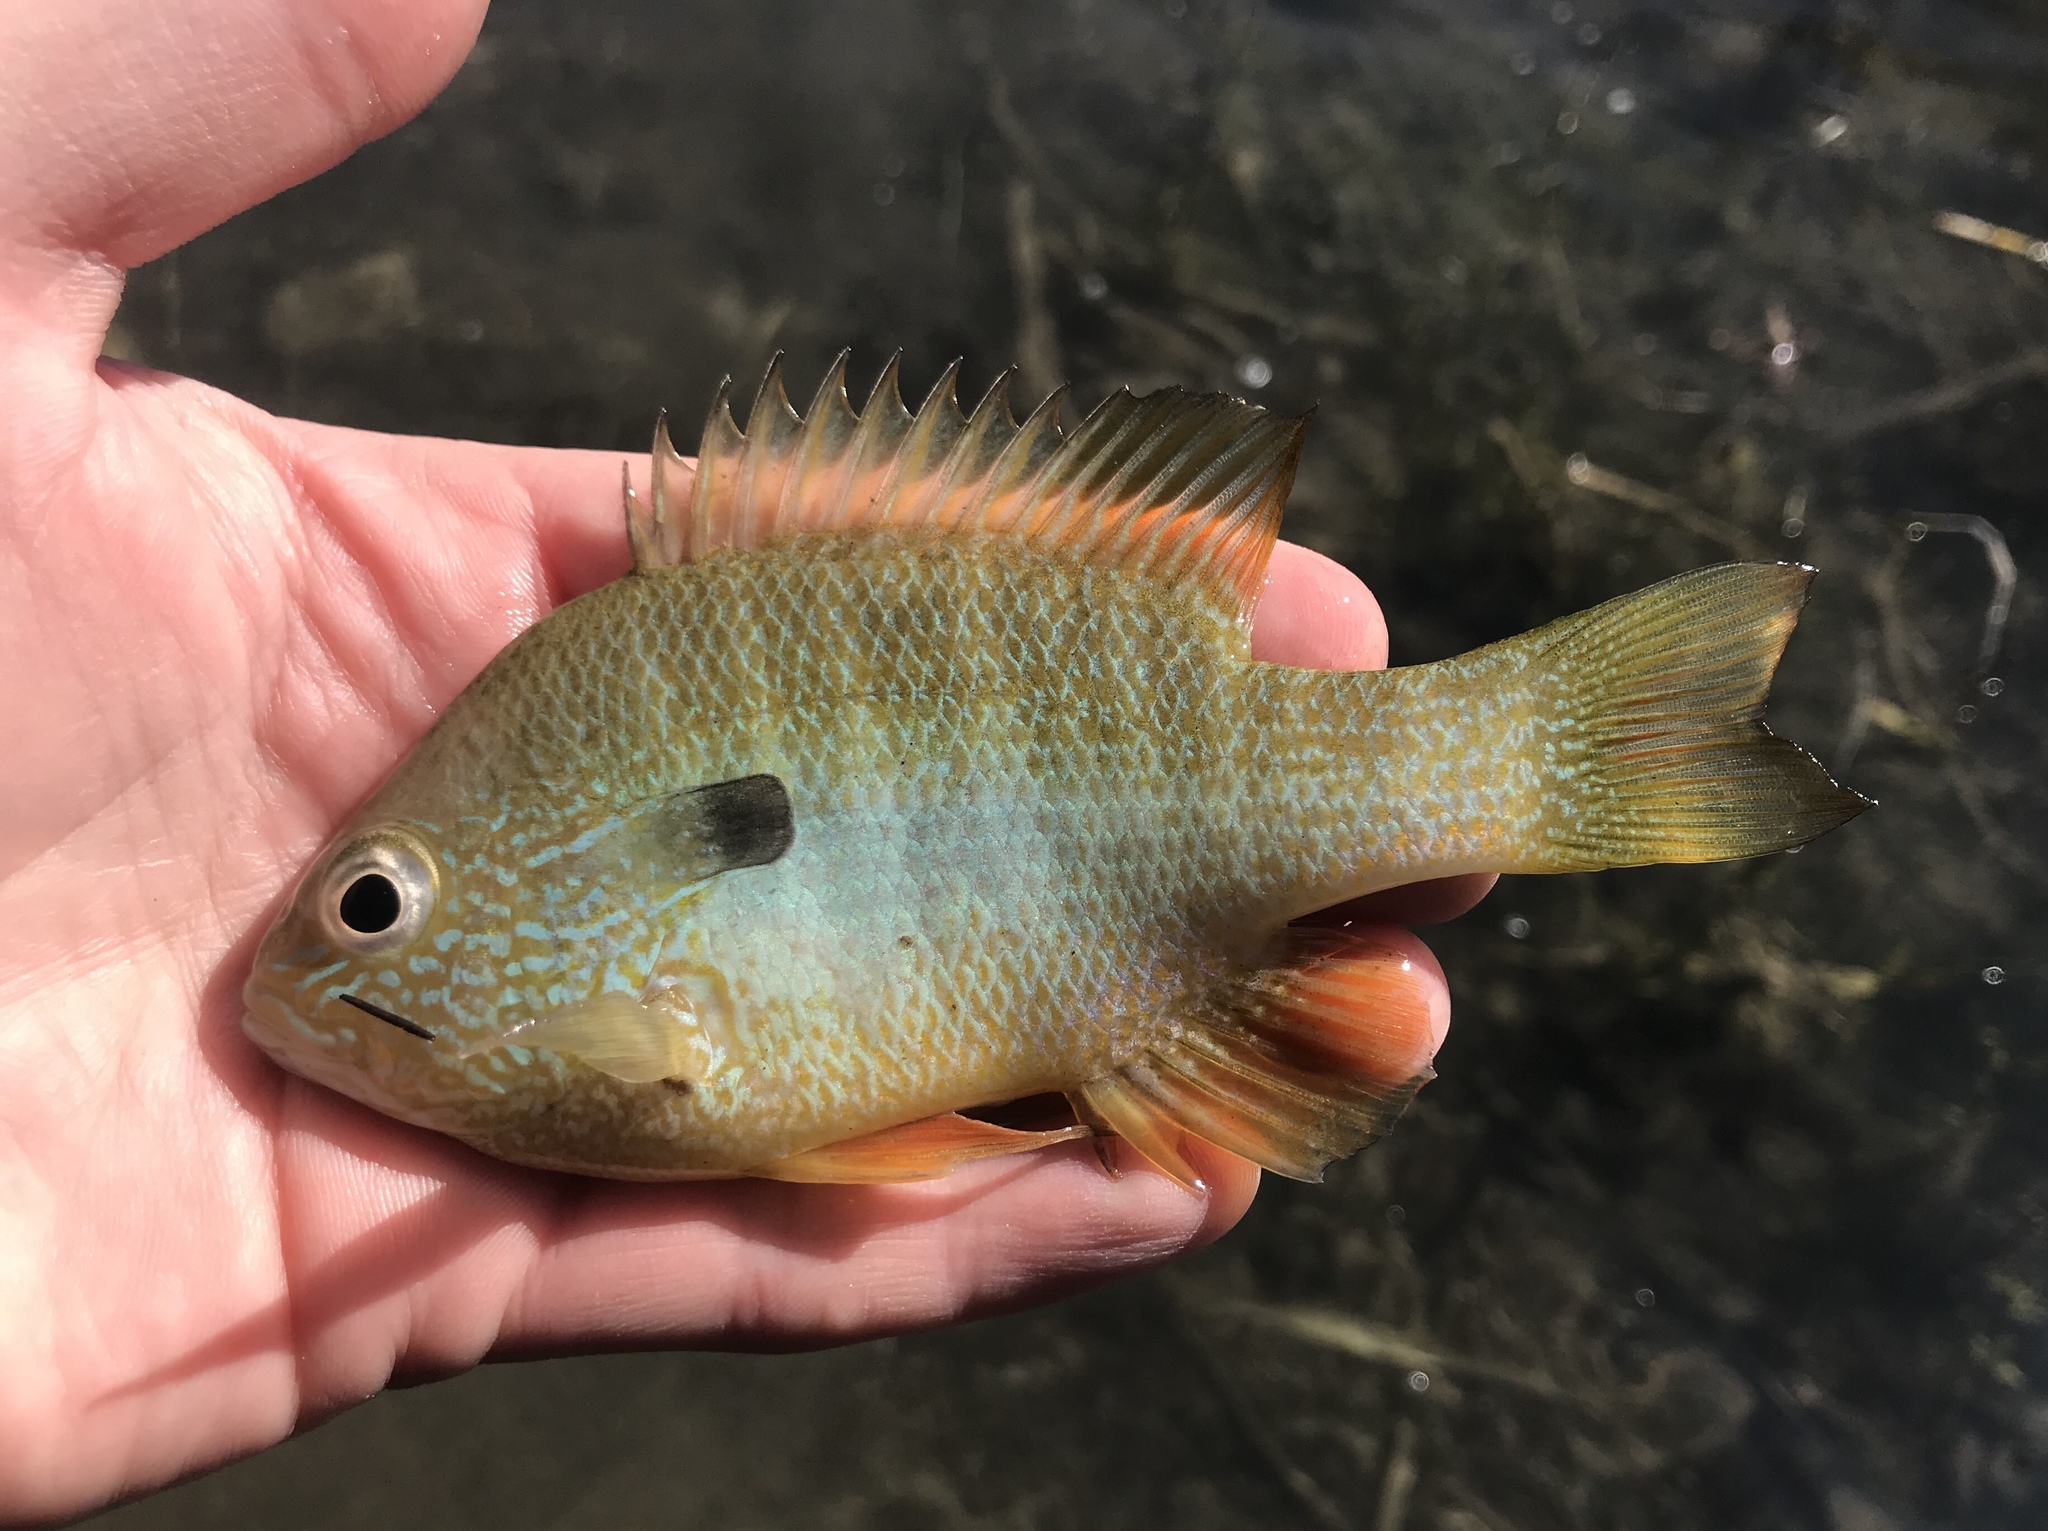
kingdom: Animalia
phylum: Chordata
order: Perciformes
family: Centrarchidae
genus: Lepomis
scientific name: Lepomis megalotis
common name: Longear sunfish
